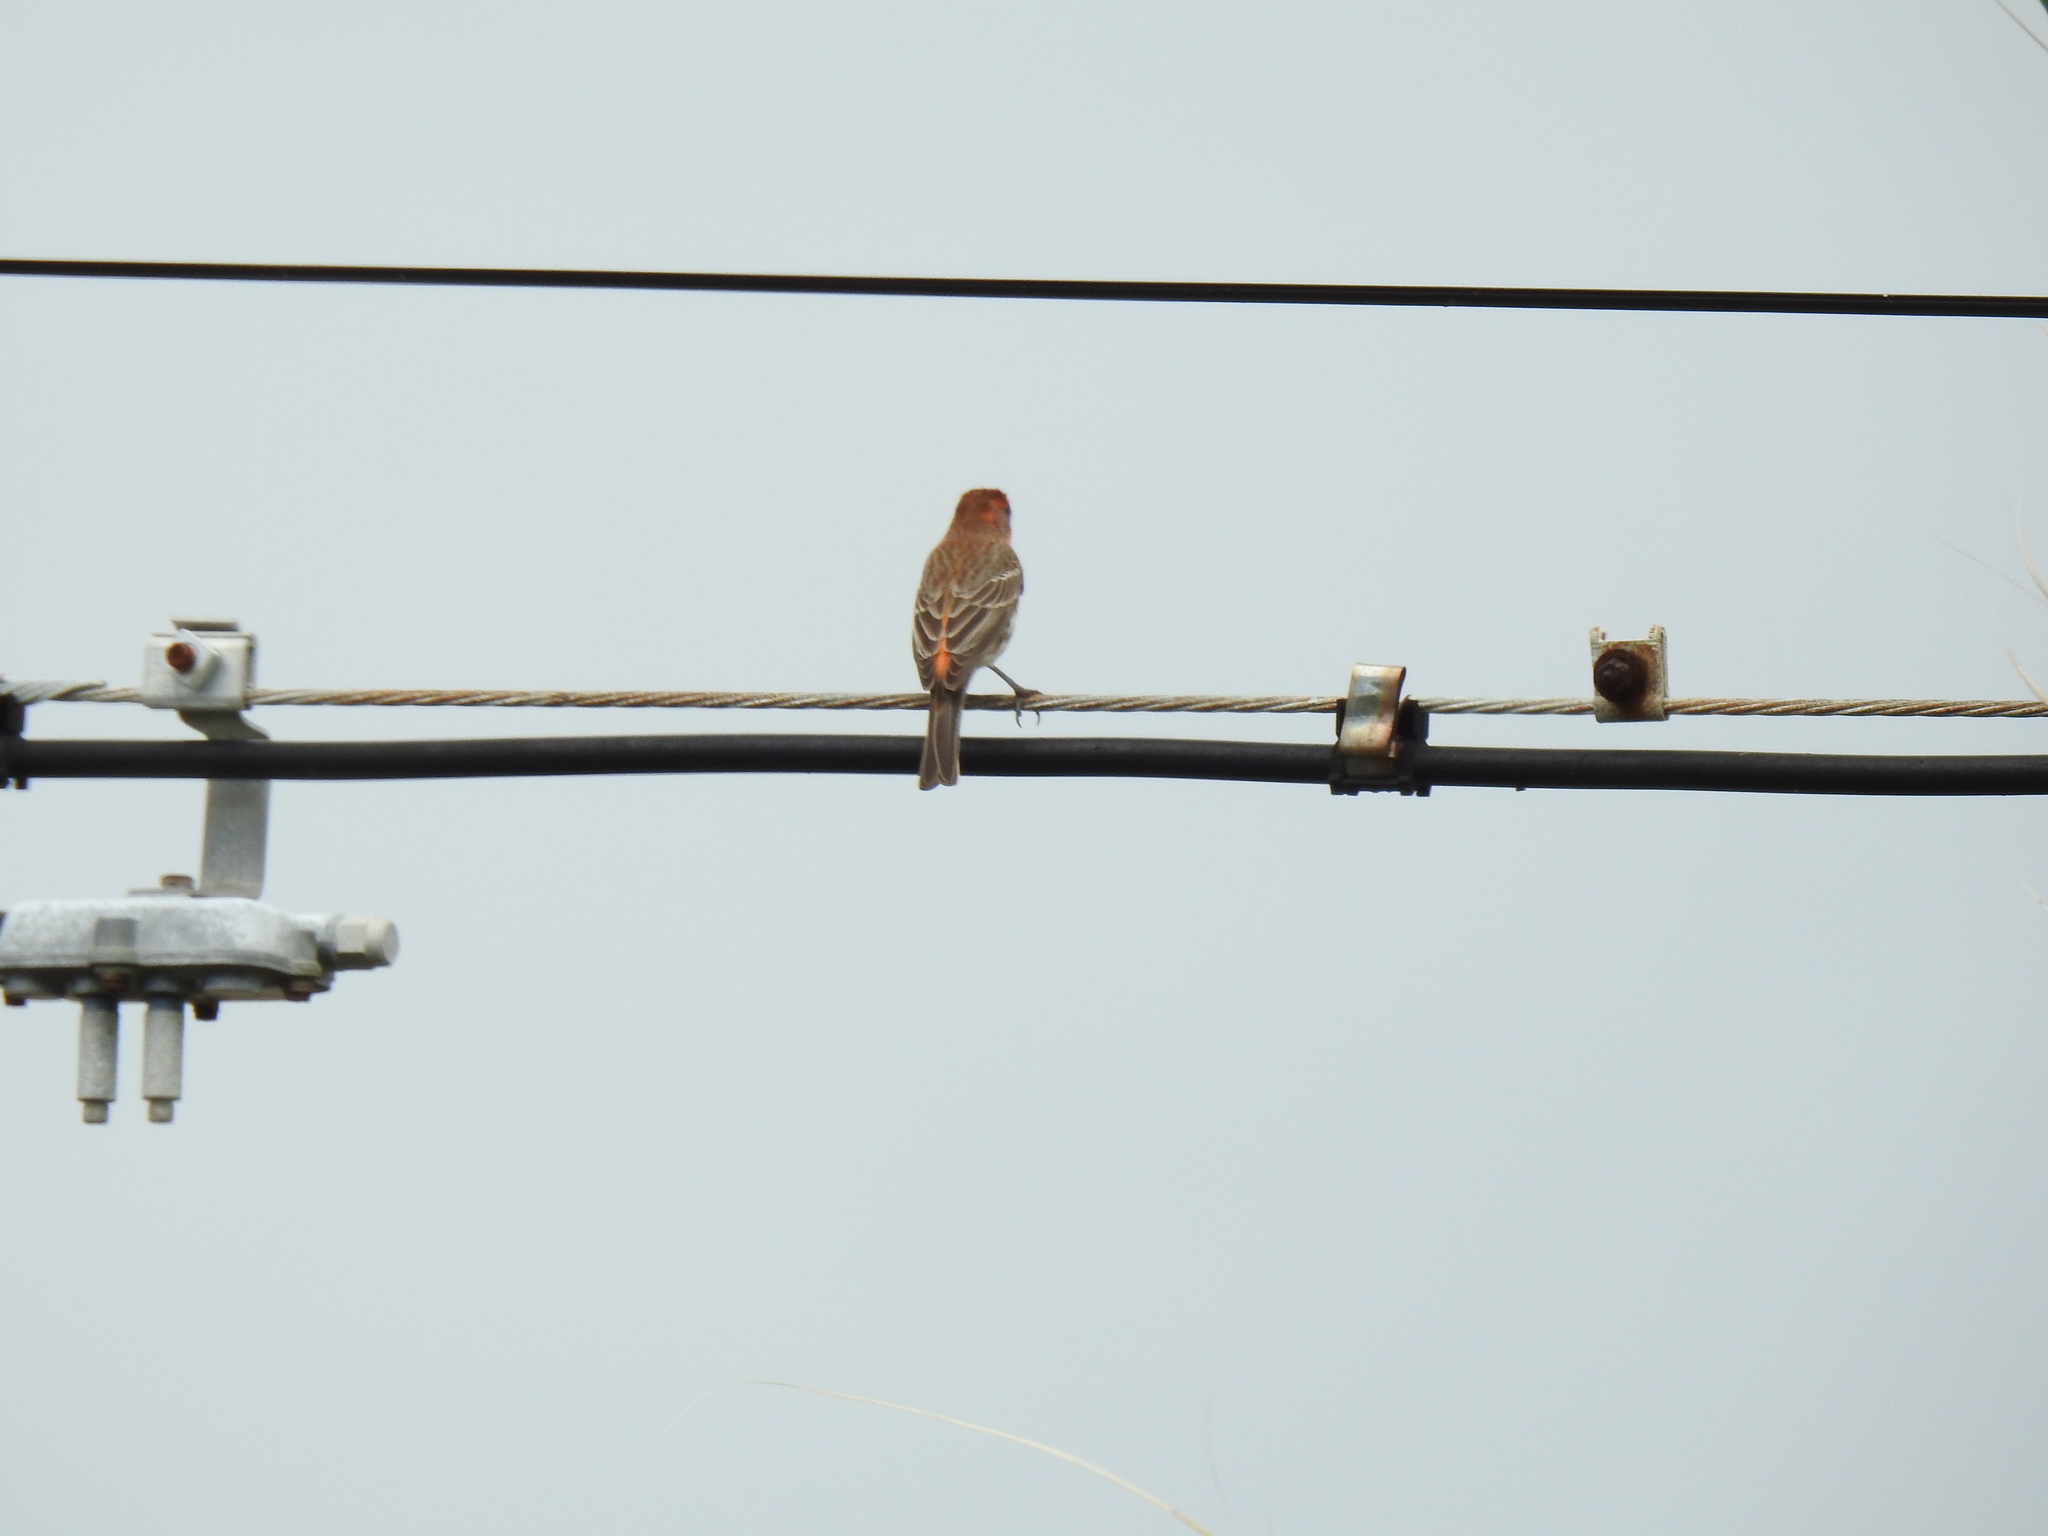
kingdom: Animalia
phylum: Chordata
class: Aves
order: Passeriformes
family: Fringillidae
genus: Haemorhous
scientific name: Haemorhous mexicanus
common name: House finch
